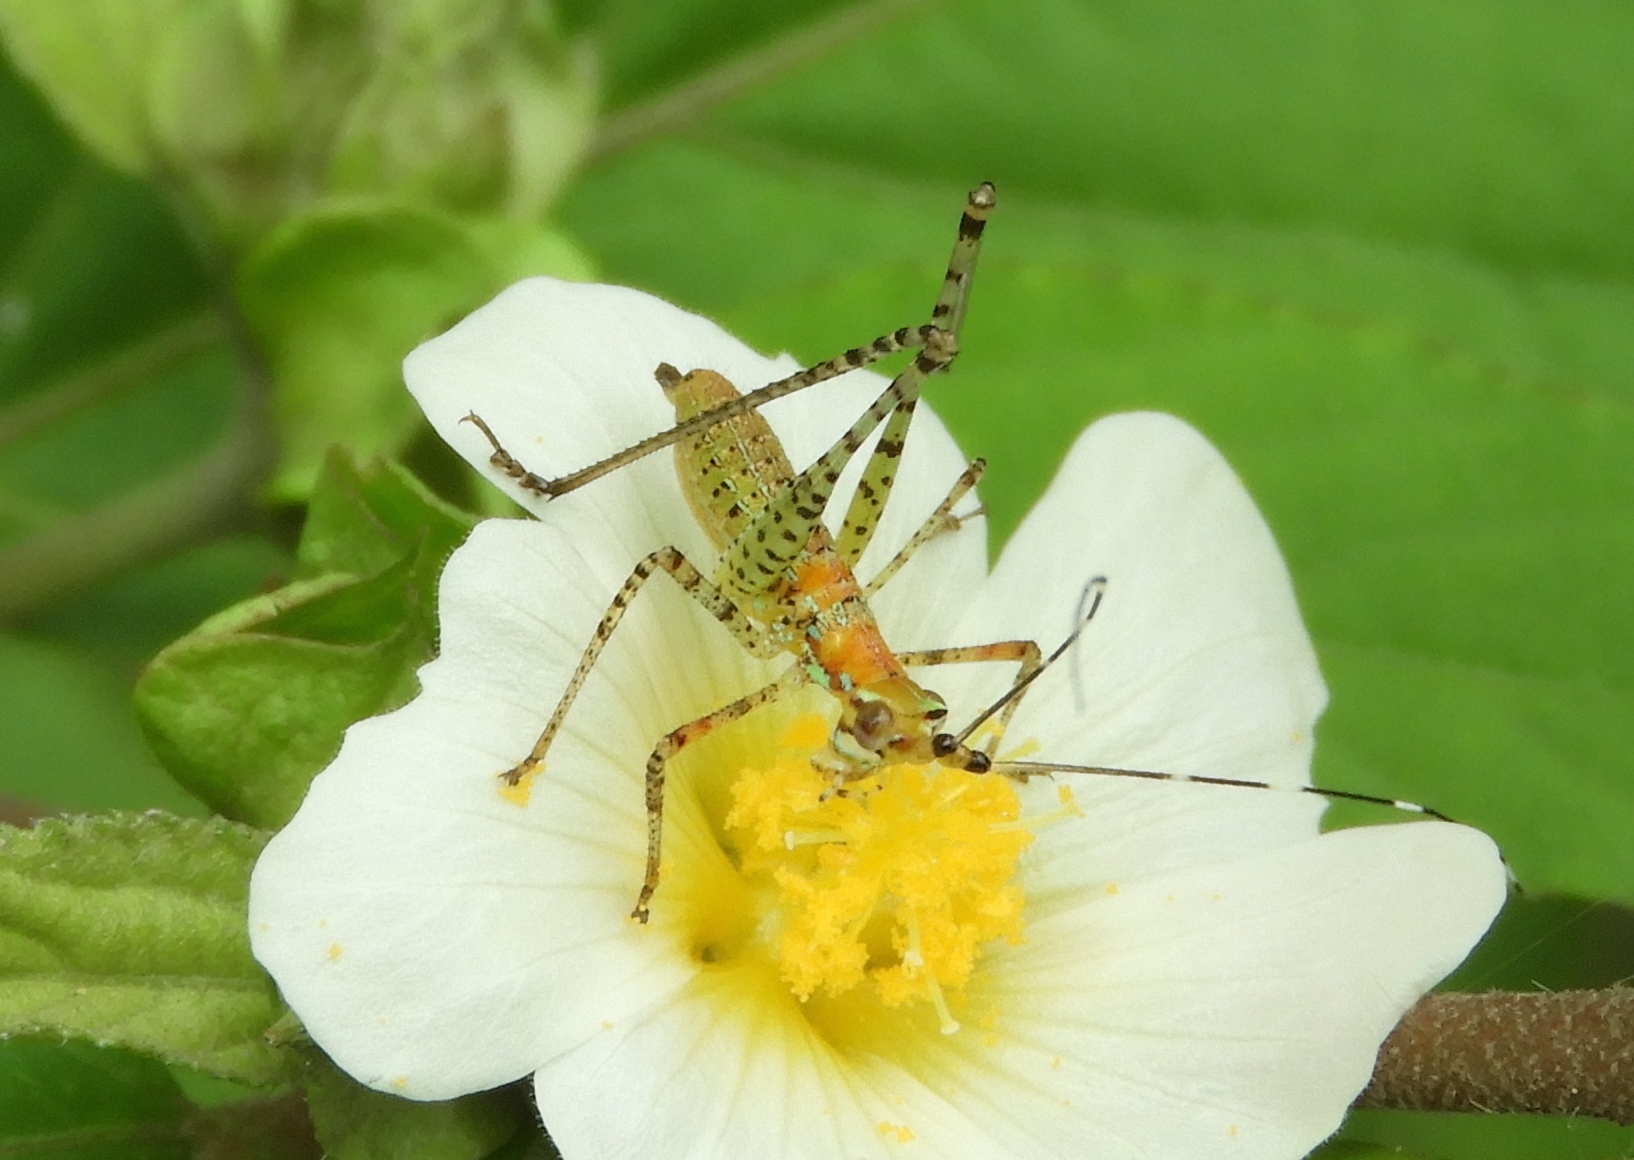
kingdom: Animalia
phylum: Arthropoda
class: Insecta
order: Orthoptera
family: Tettigoniidae
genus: Scudderia
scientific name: Scudderia
